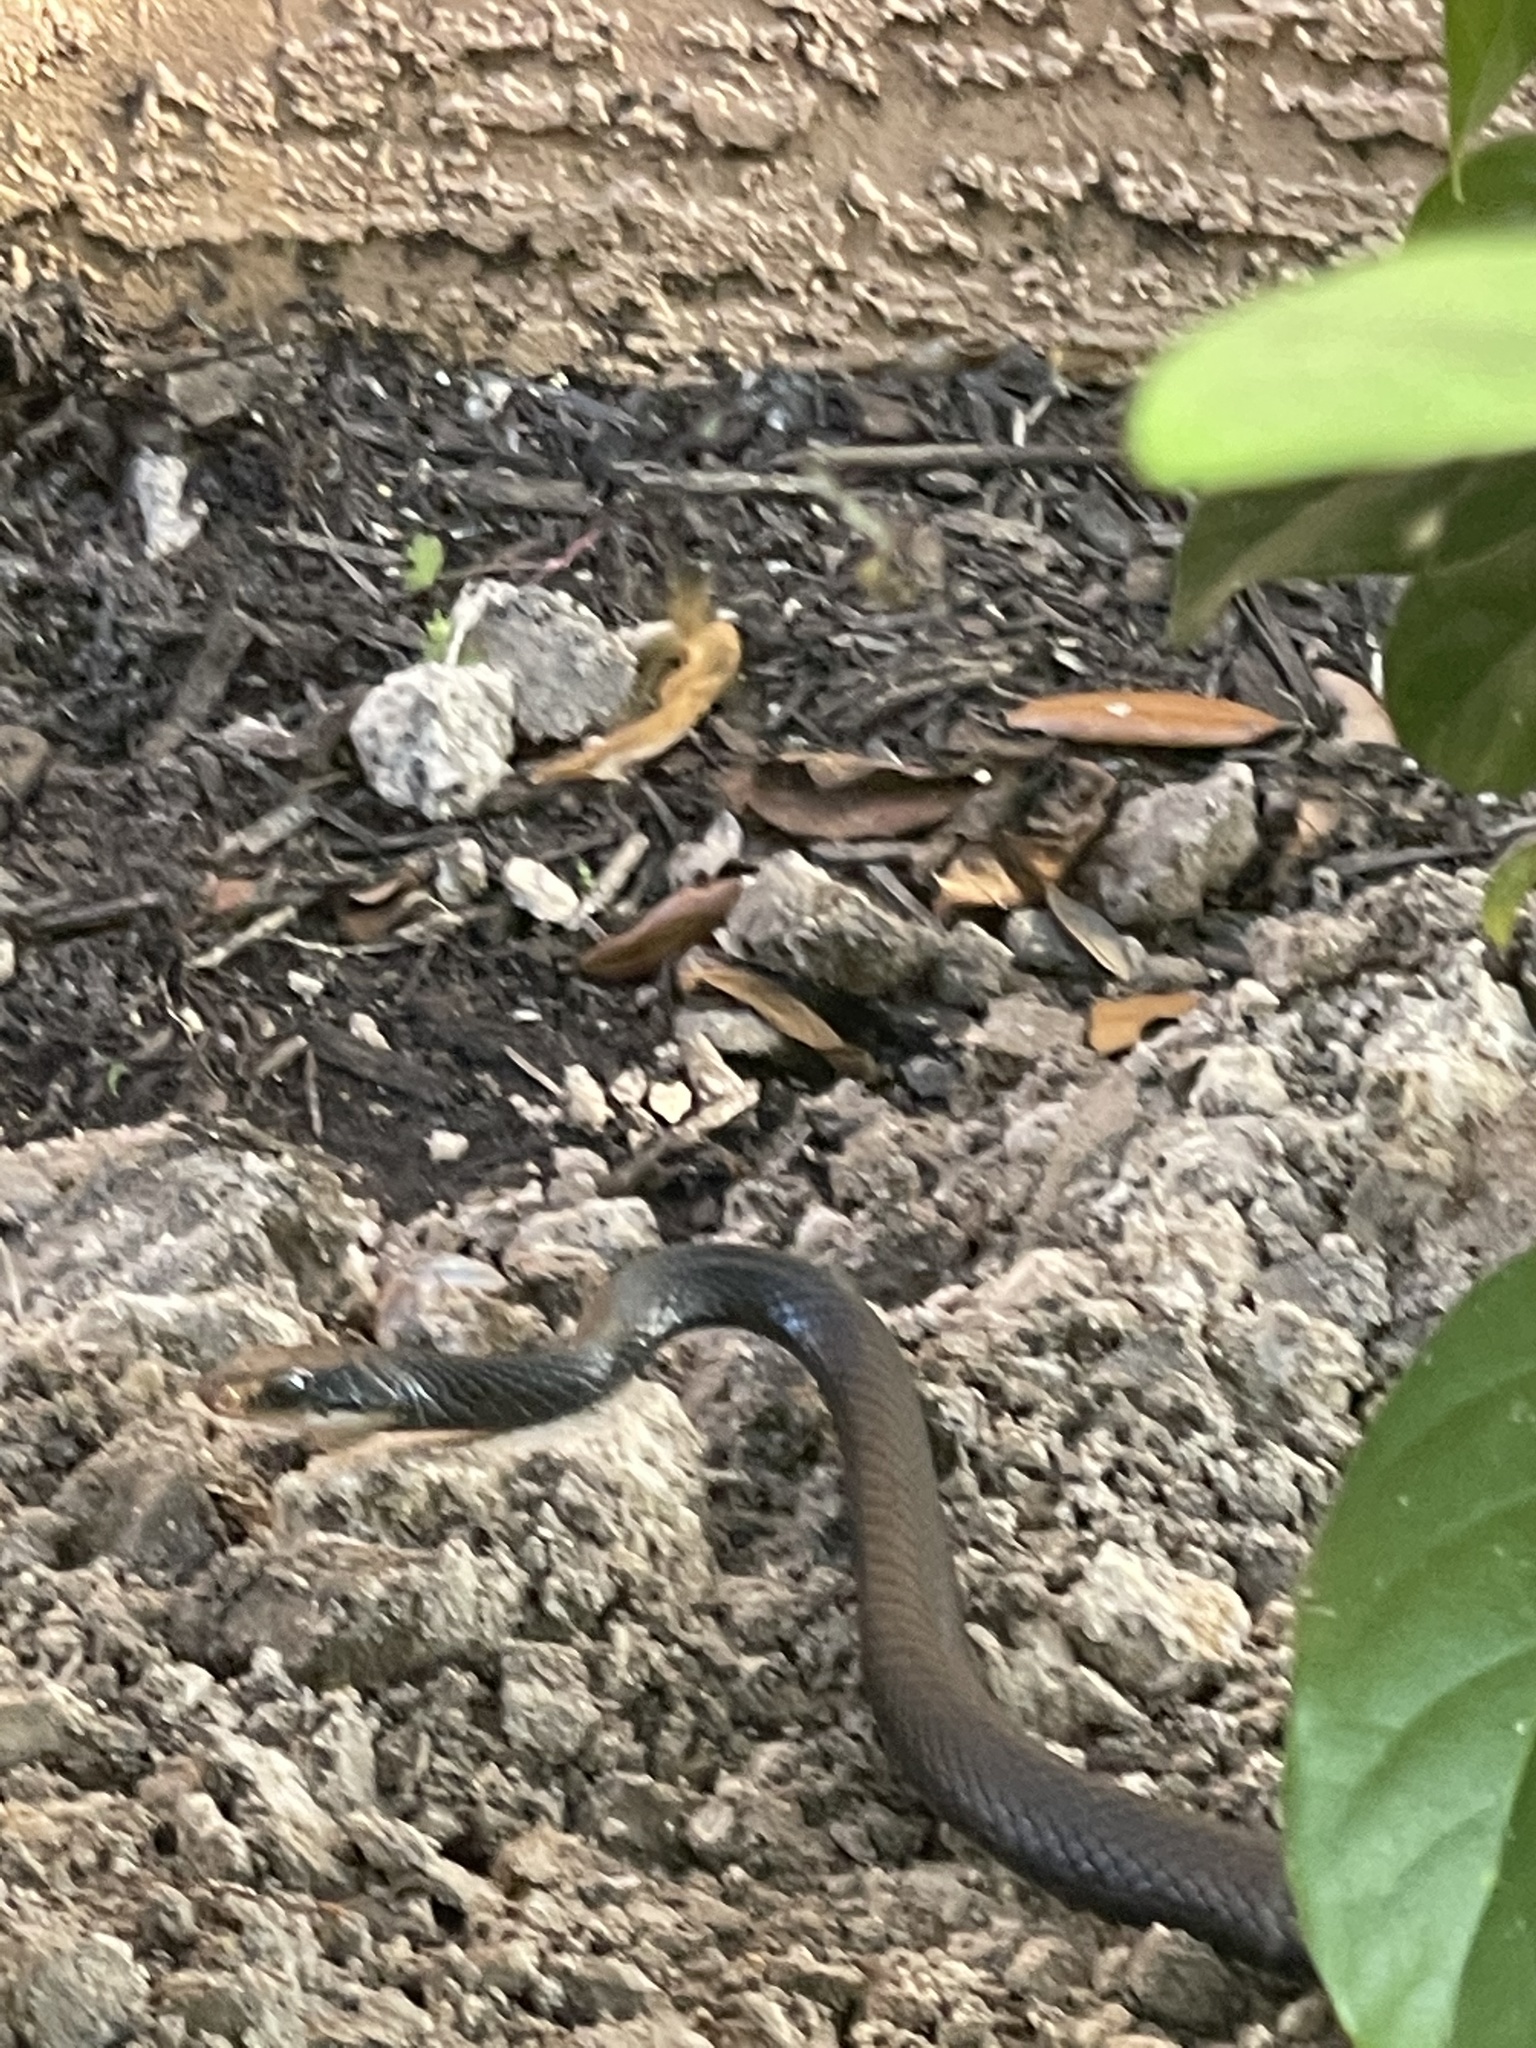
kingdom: Animalia
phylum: Chordata
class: Squamata
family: Colubridae
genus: Coluber
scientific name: Coluber constrictor
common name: Eastern racer
